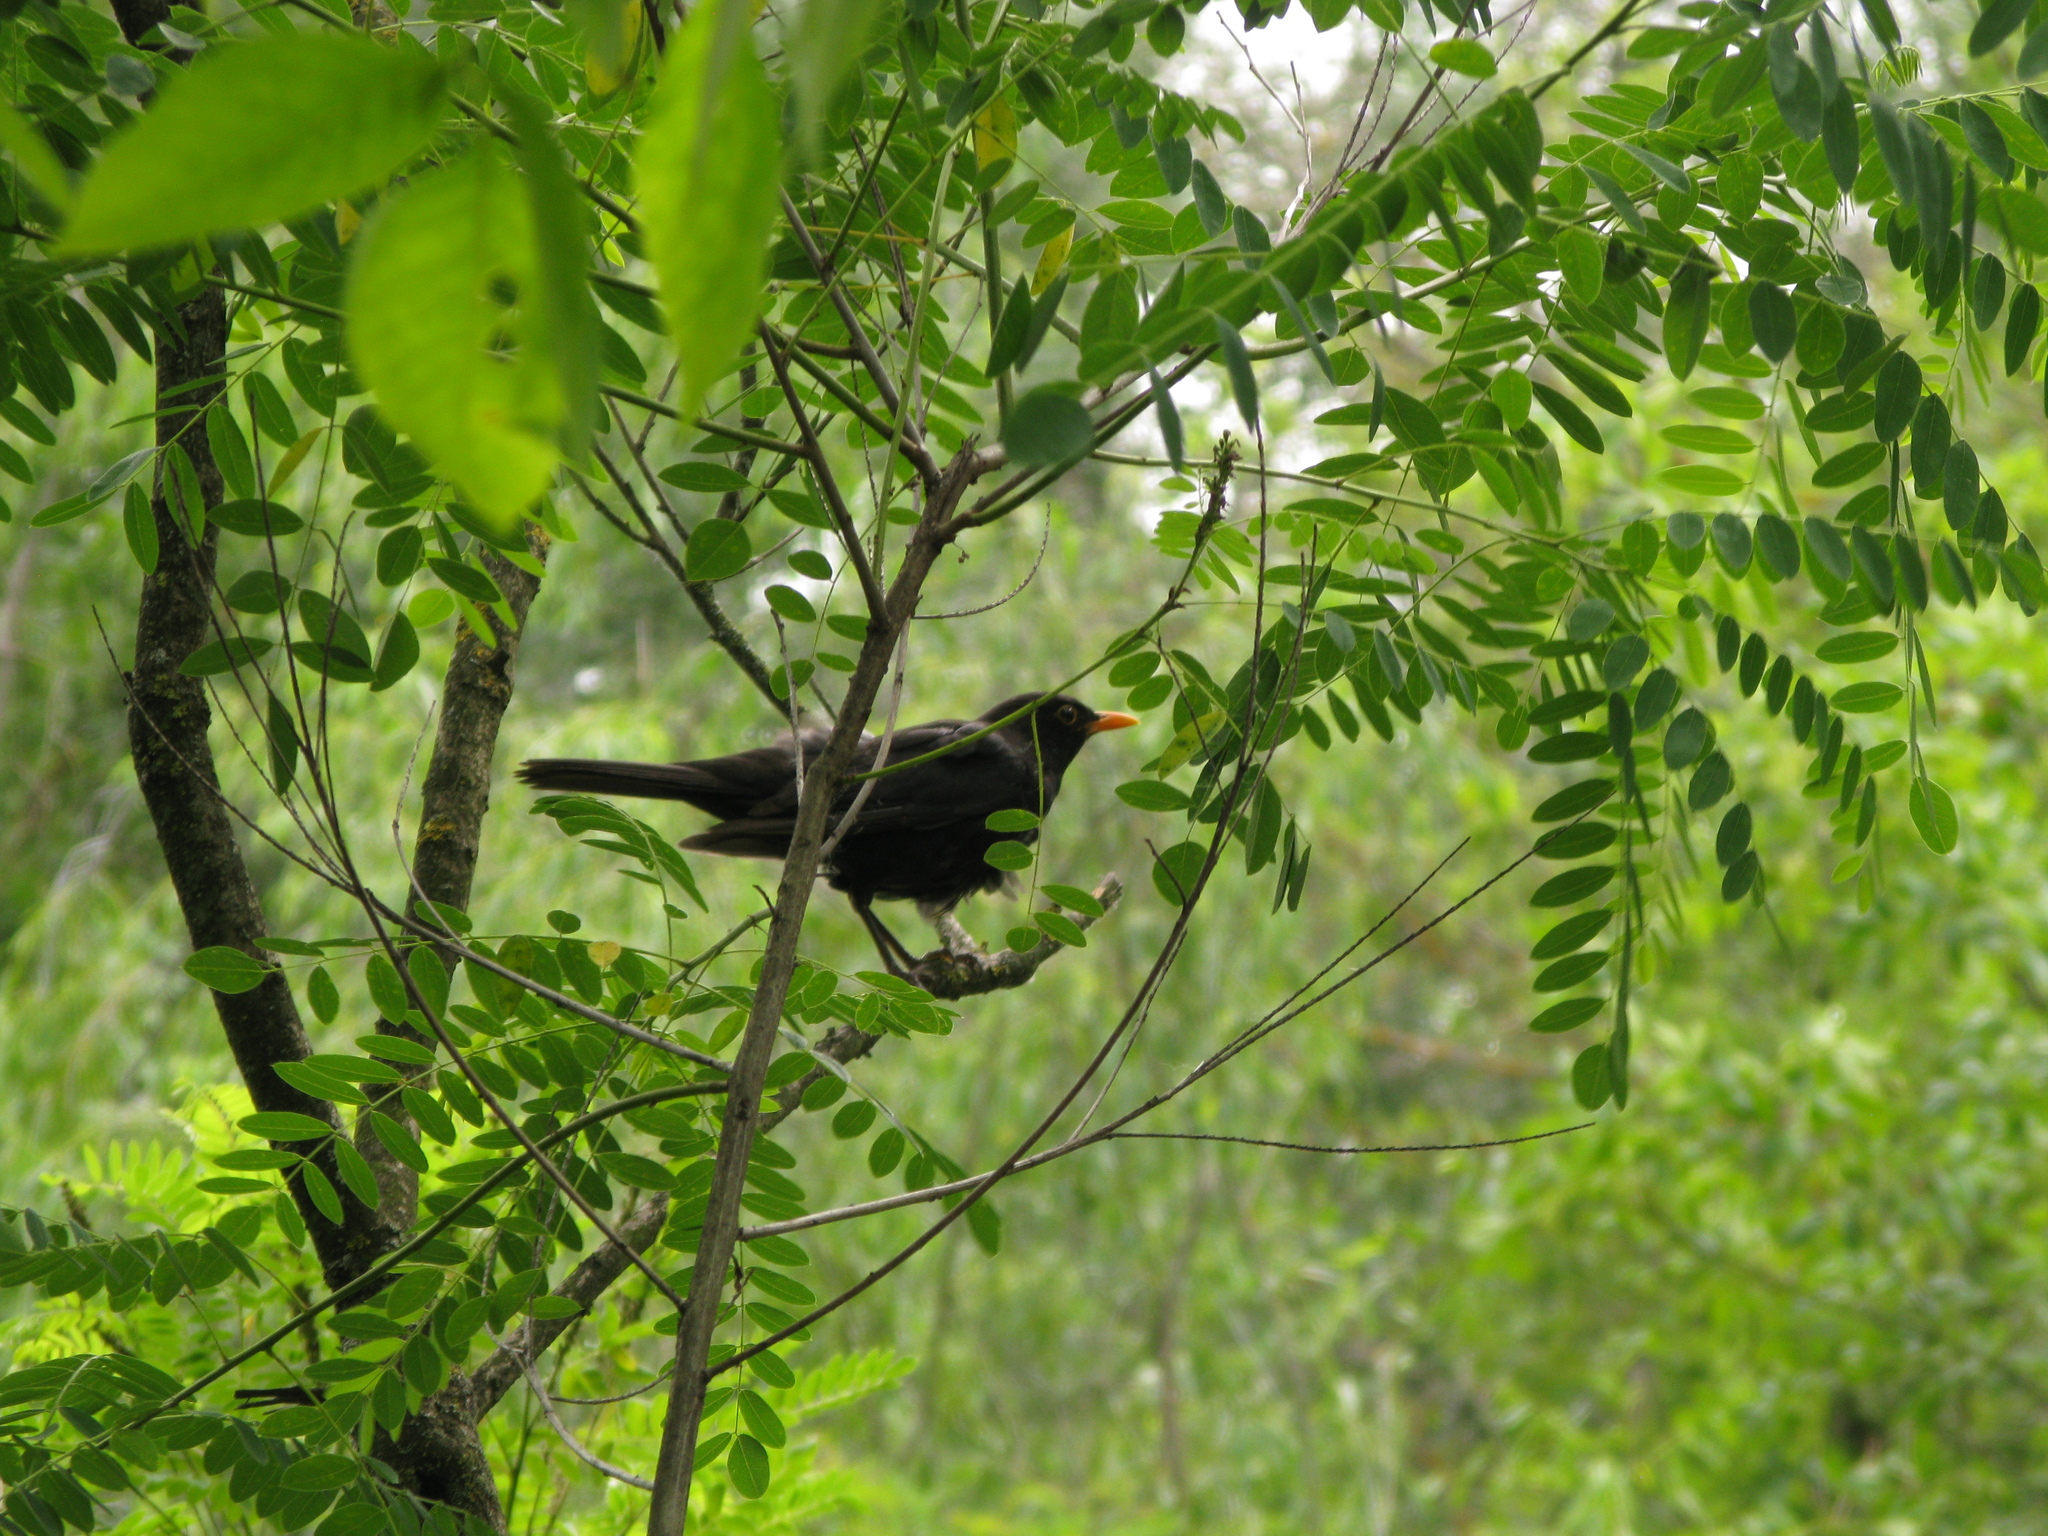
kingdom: Animalia
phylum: Chordata
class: Aves
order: Passeriformes
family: Turdidae
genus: Turdus
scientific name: Turdus merula
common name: Common blackbird
